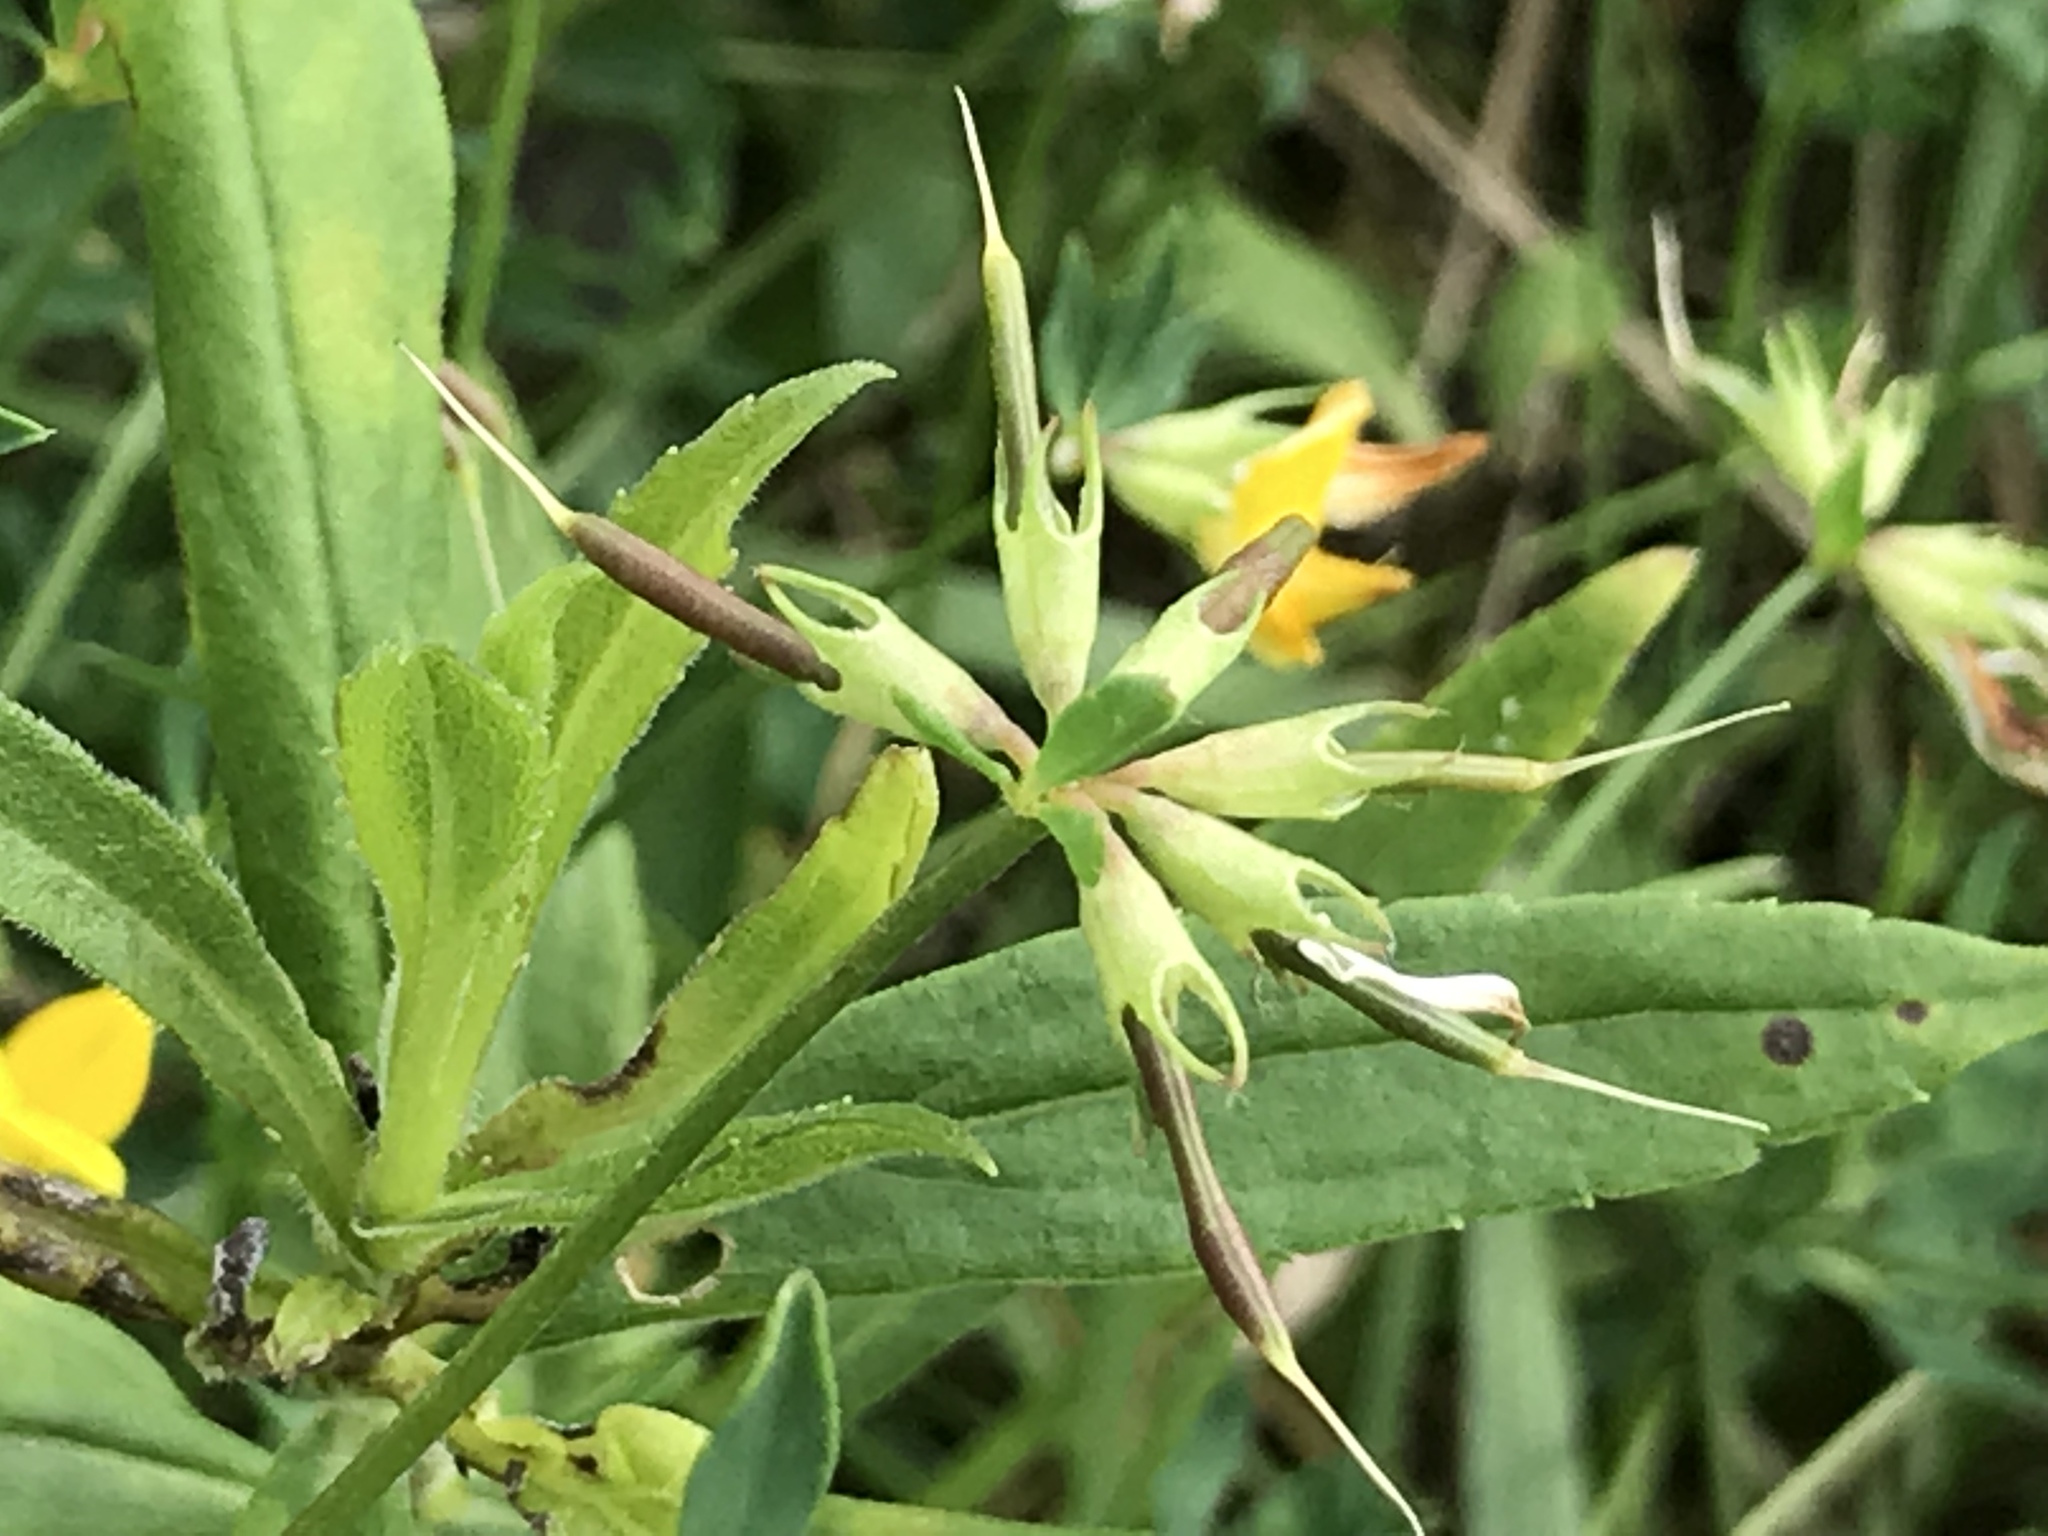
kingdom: Plantae
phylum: Tracheophyta
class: Magnoliopsida
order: Fabales
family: Fabaceae
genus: Lotus
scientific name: Lotus corniculatus
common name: Common bird's-foot-trefoil
